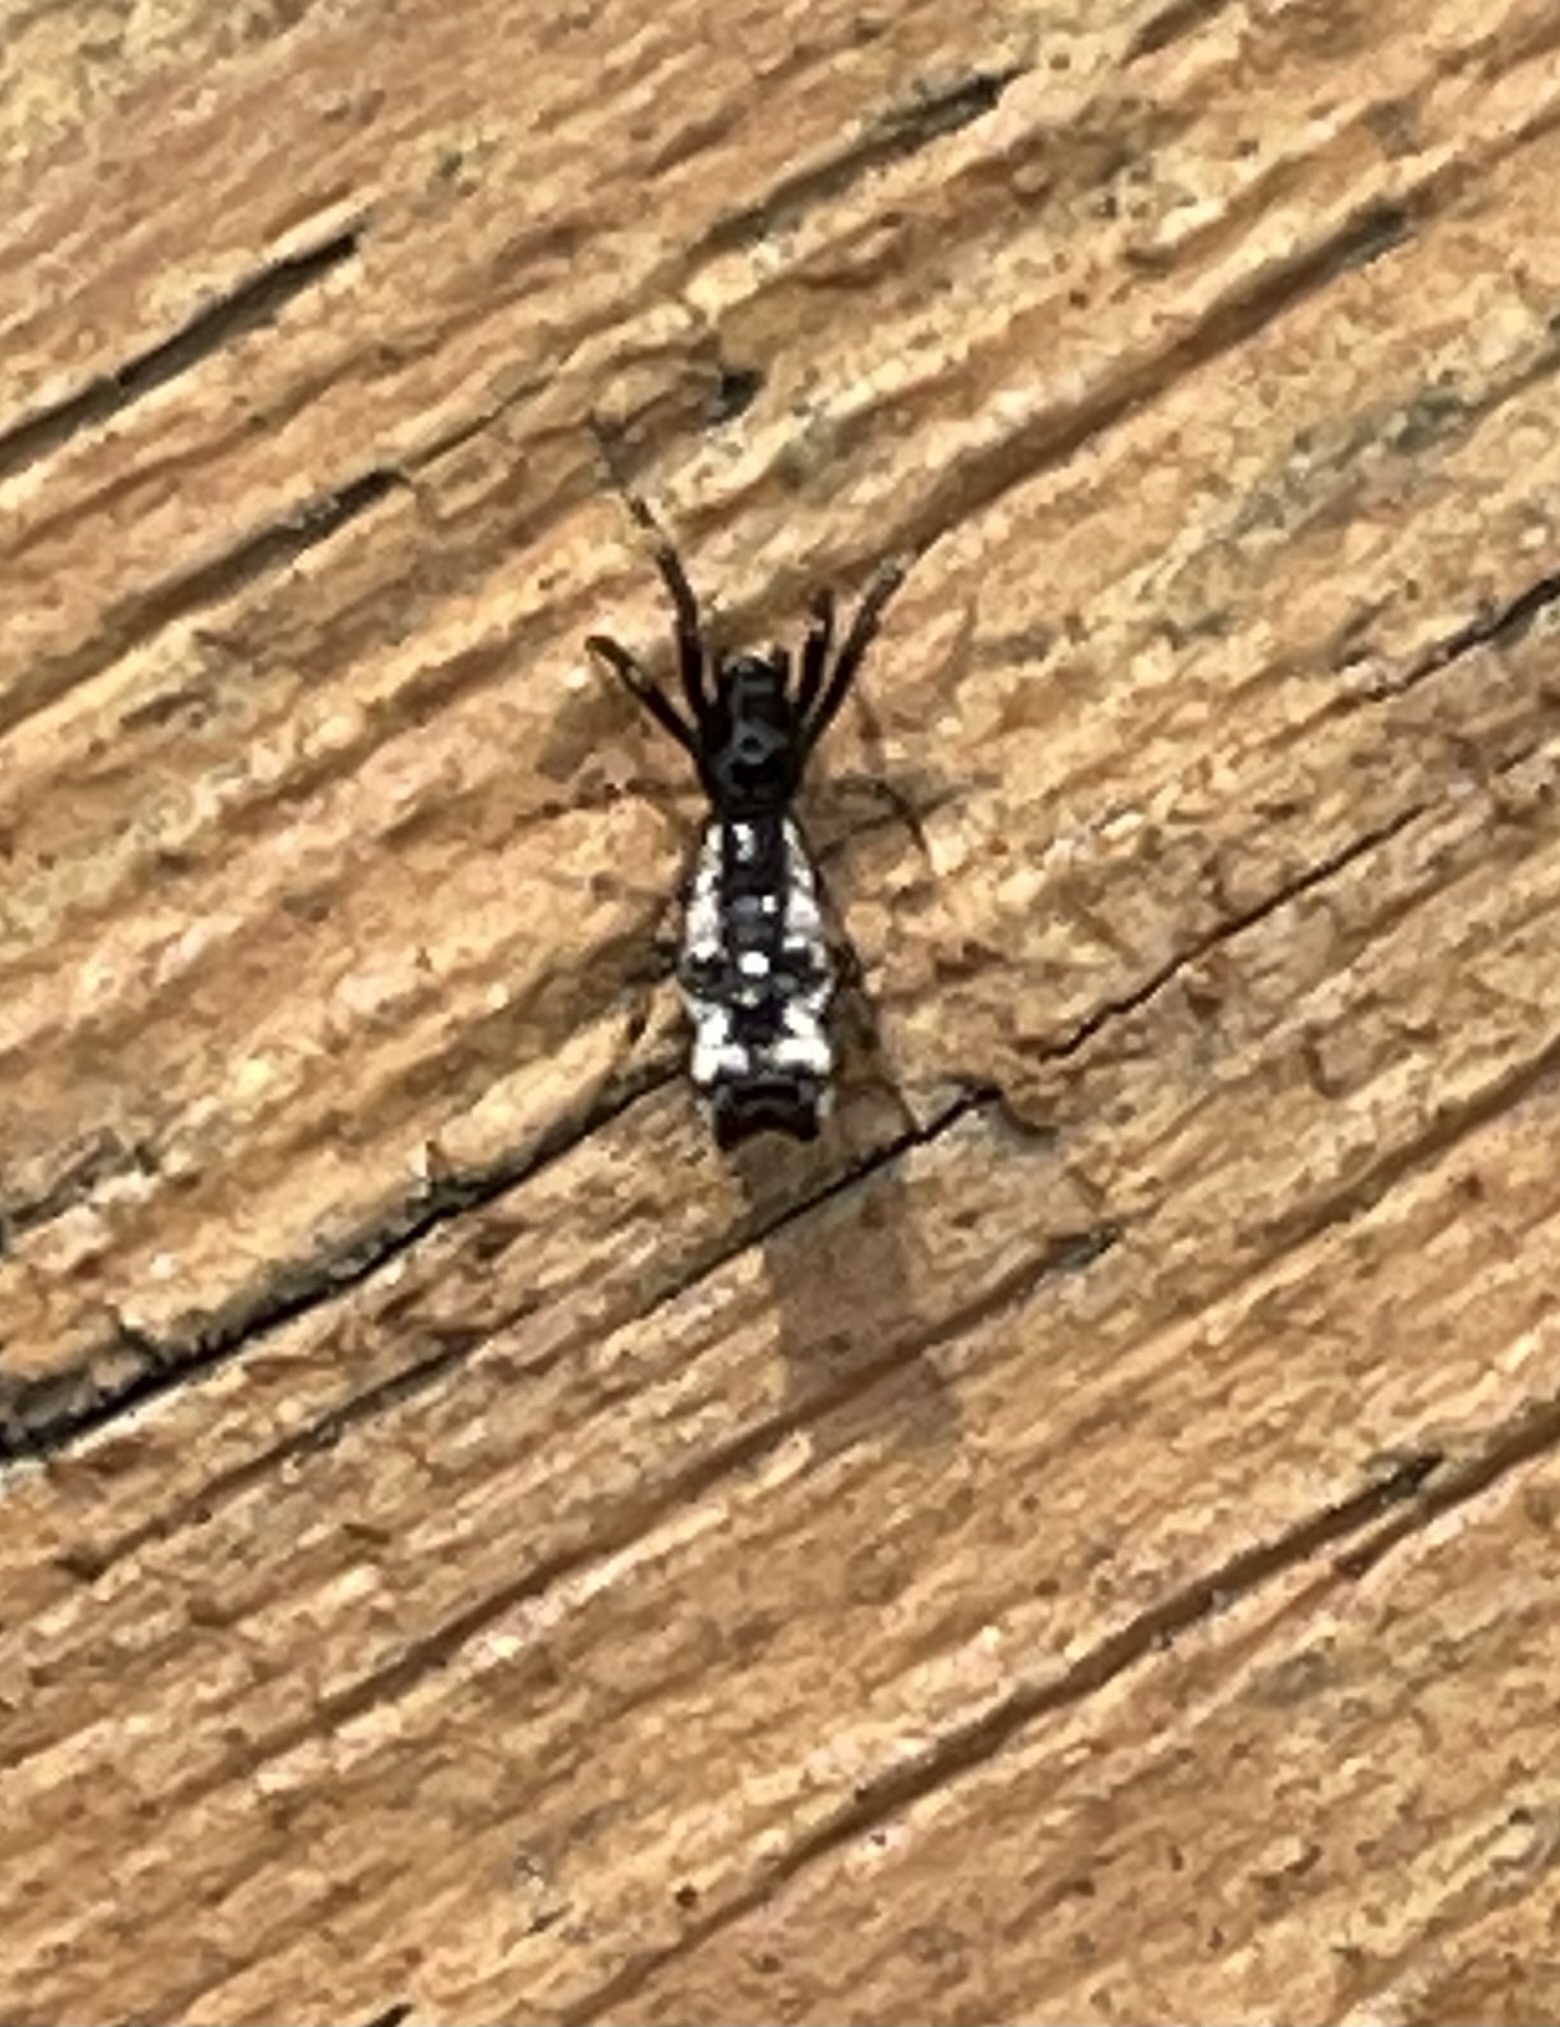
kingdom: Animalia
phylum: Arthropoda
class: Arachnida
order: Araneae
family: Araneidae
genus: Micrathena
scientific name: Micrathena gracilis
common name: Orb weavers
